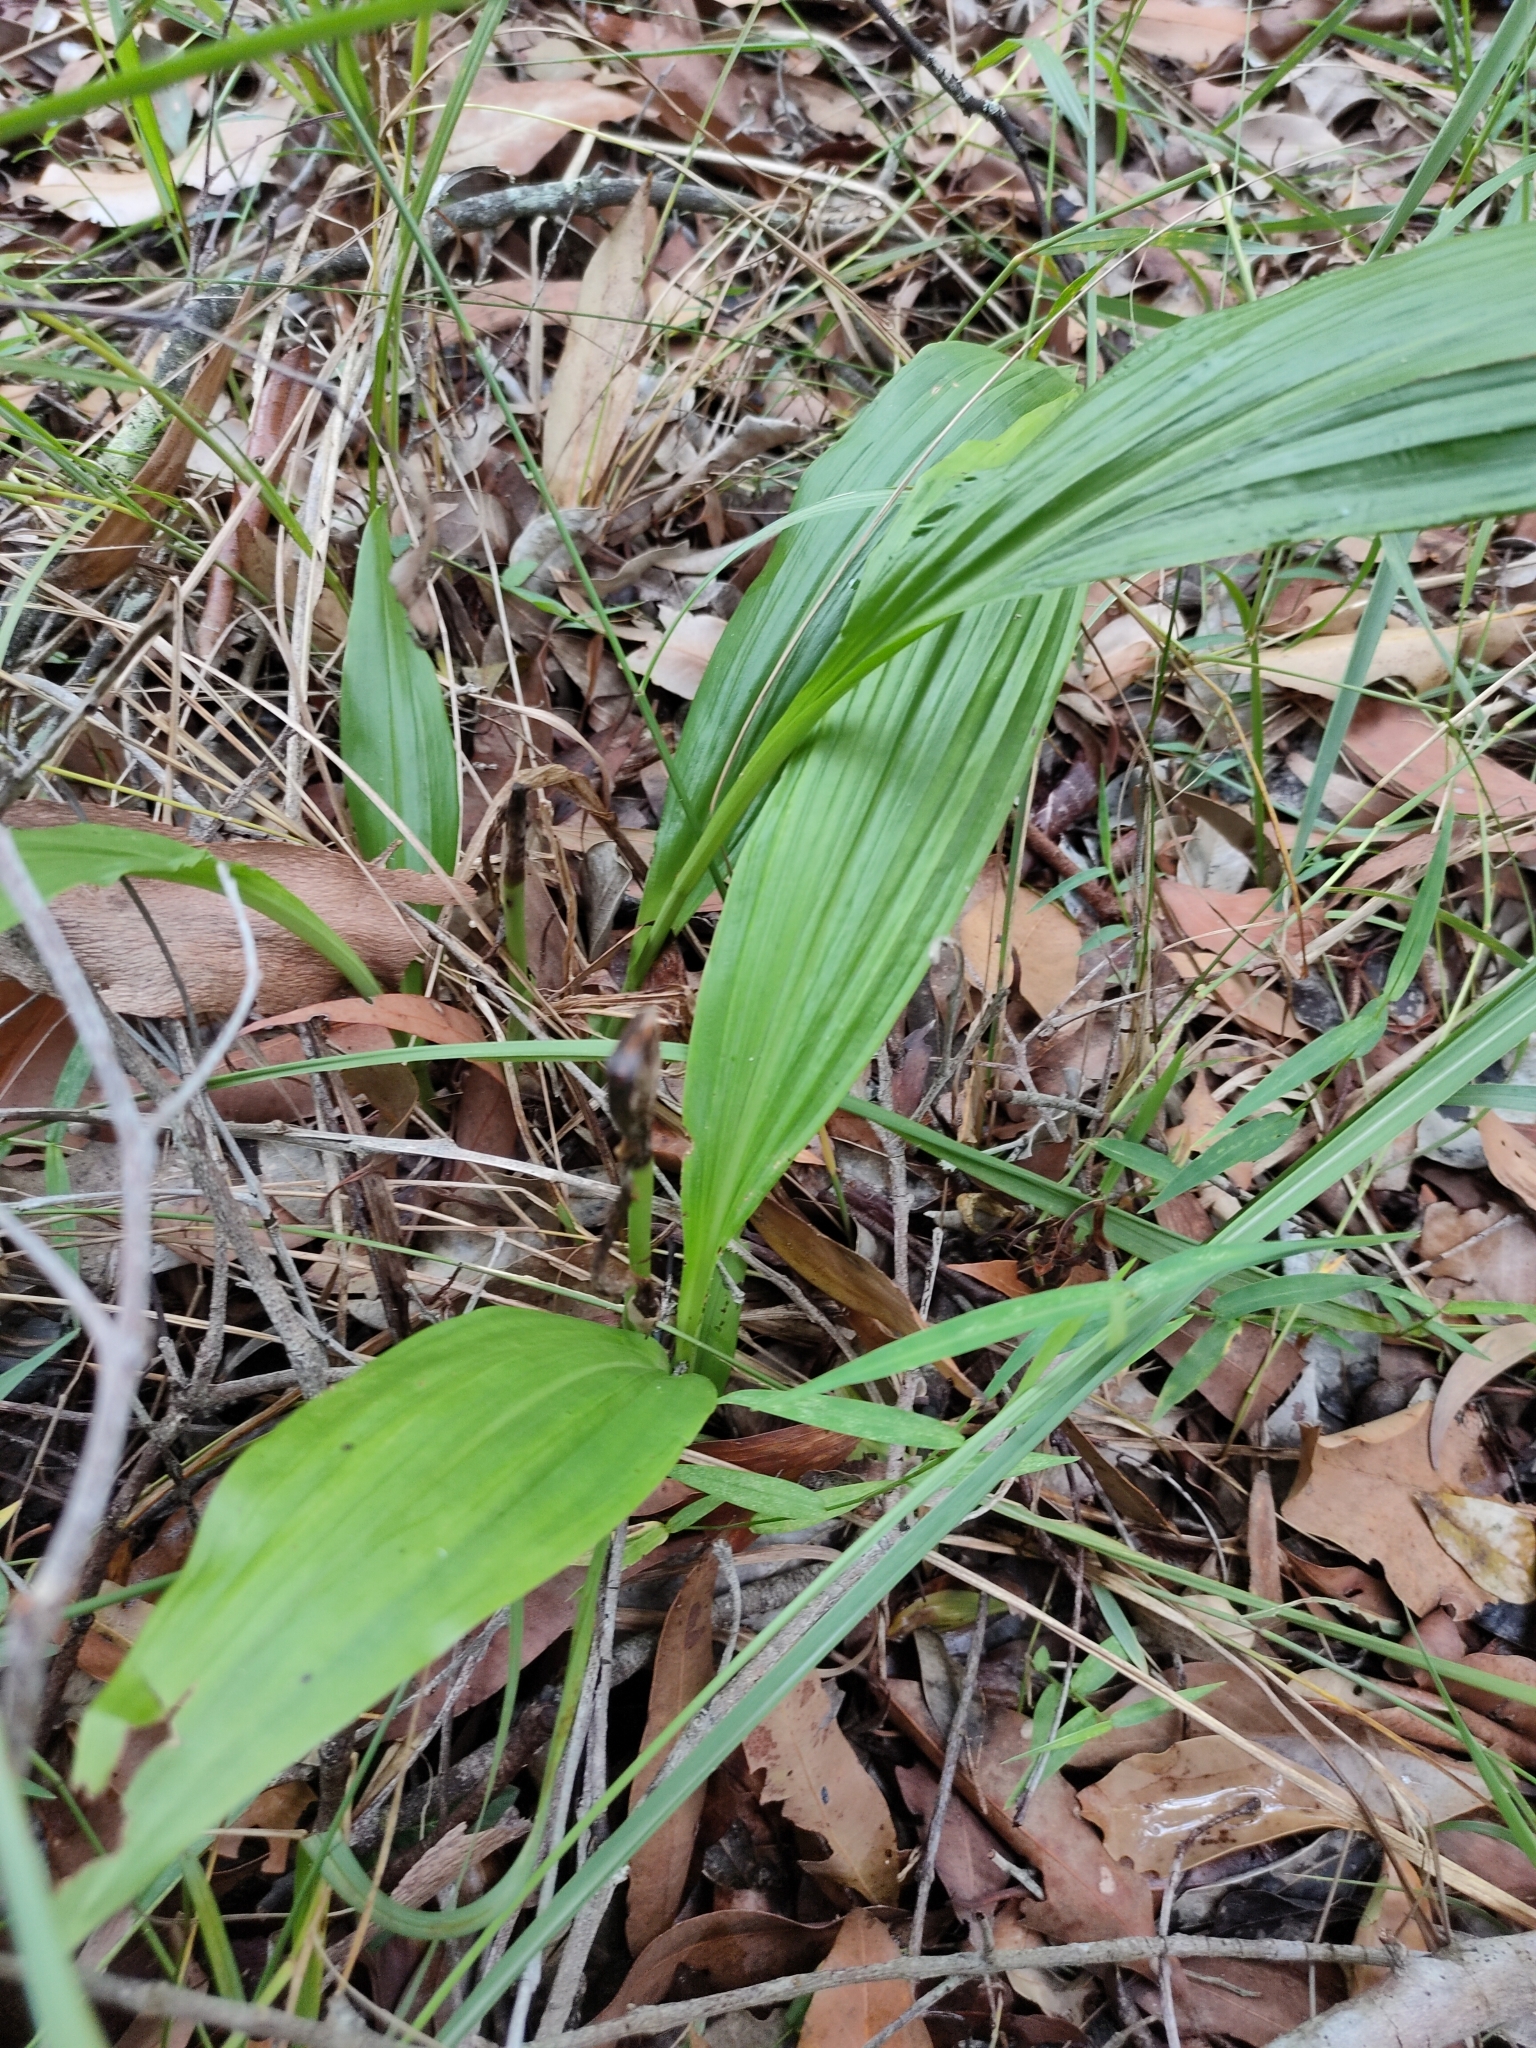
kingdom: Plantae
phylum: Tracheophyta
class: Liliopsida
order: Asparagales
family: Orchidaceae
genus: Eulophia
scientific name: Eulophia cernua
